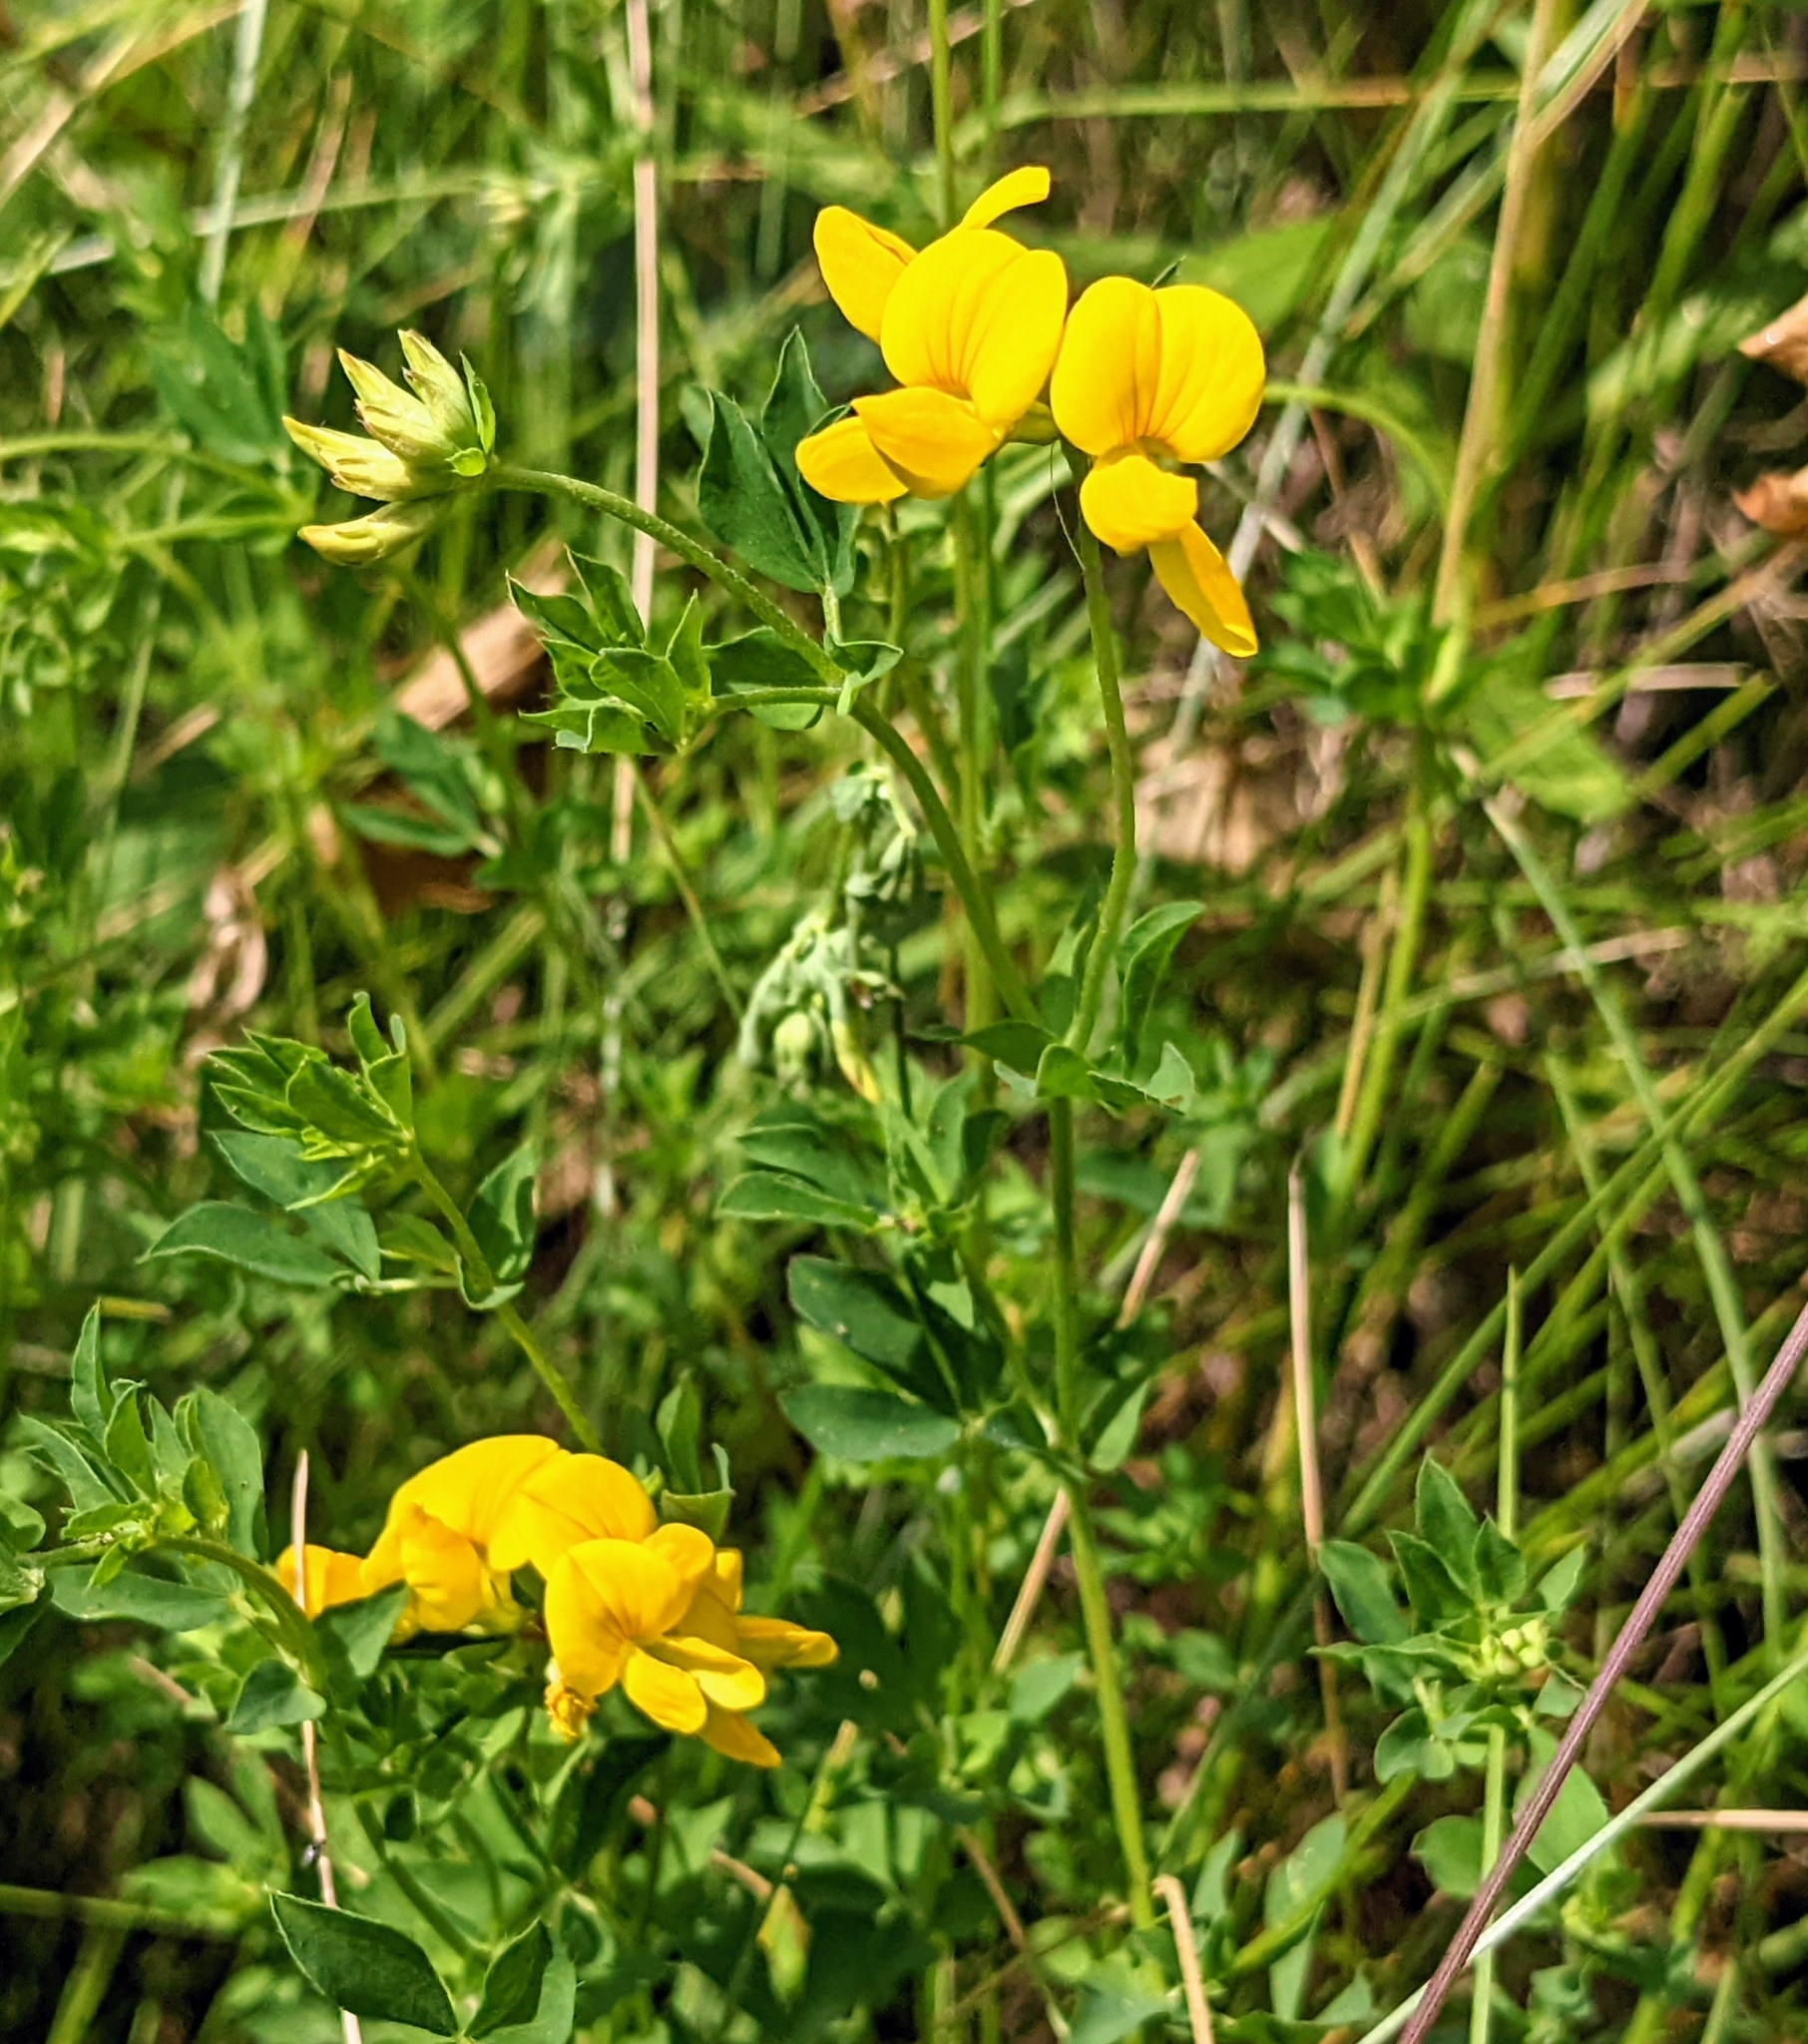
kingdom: Plantae
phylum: Tracheophyta
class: Magnoliopsida
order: Fabales
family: Fabaceae
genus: Lotus
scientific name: Lotus corniculatus
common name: Common bird's-foot-trefoil
